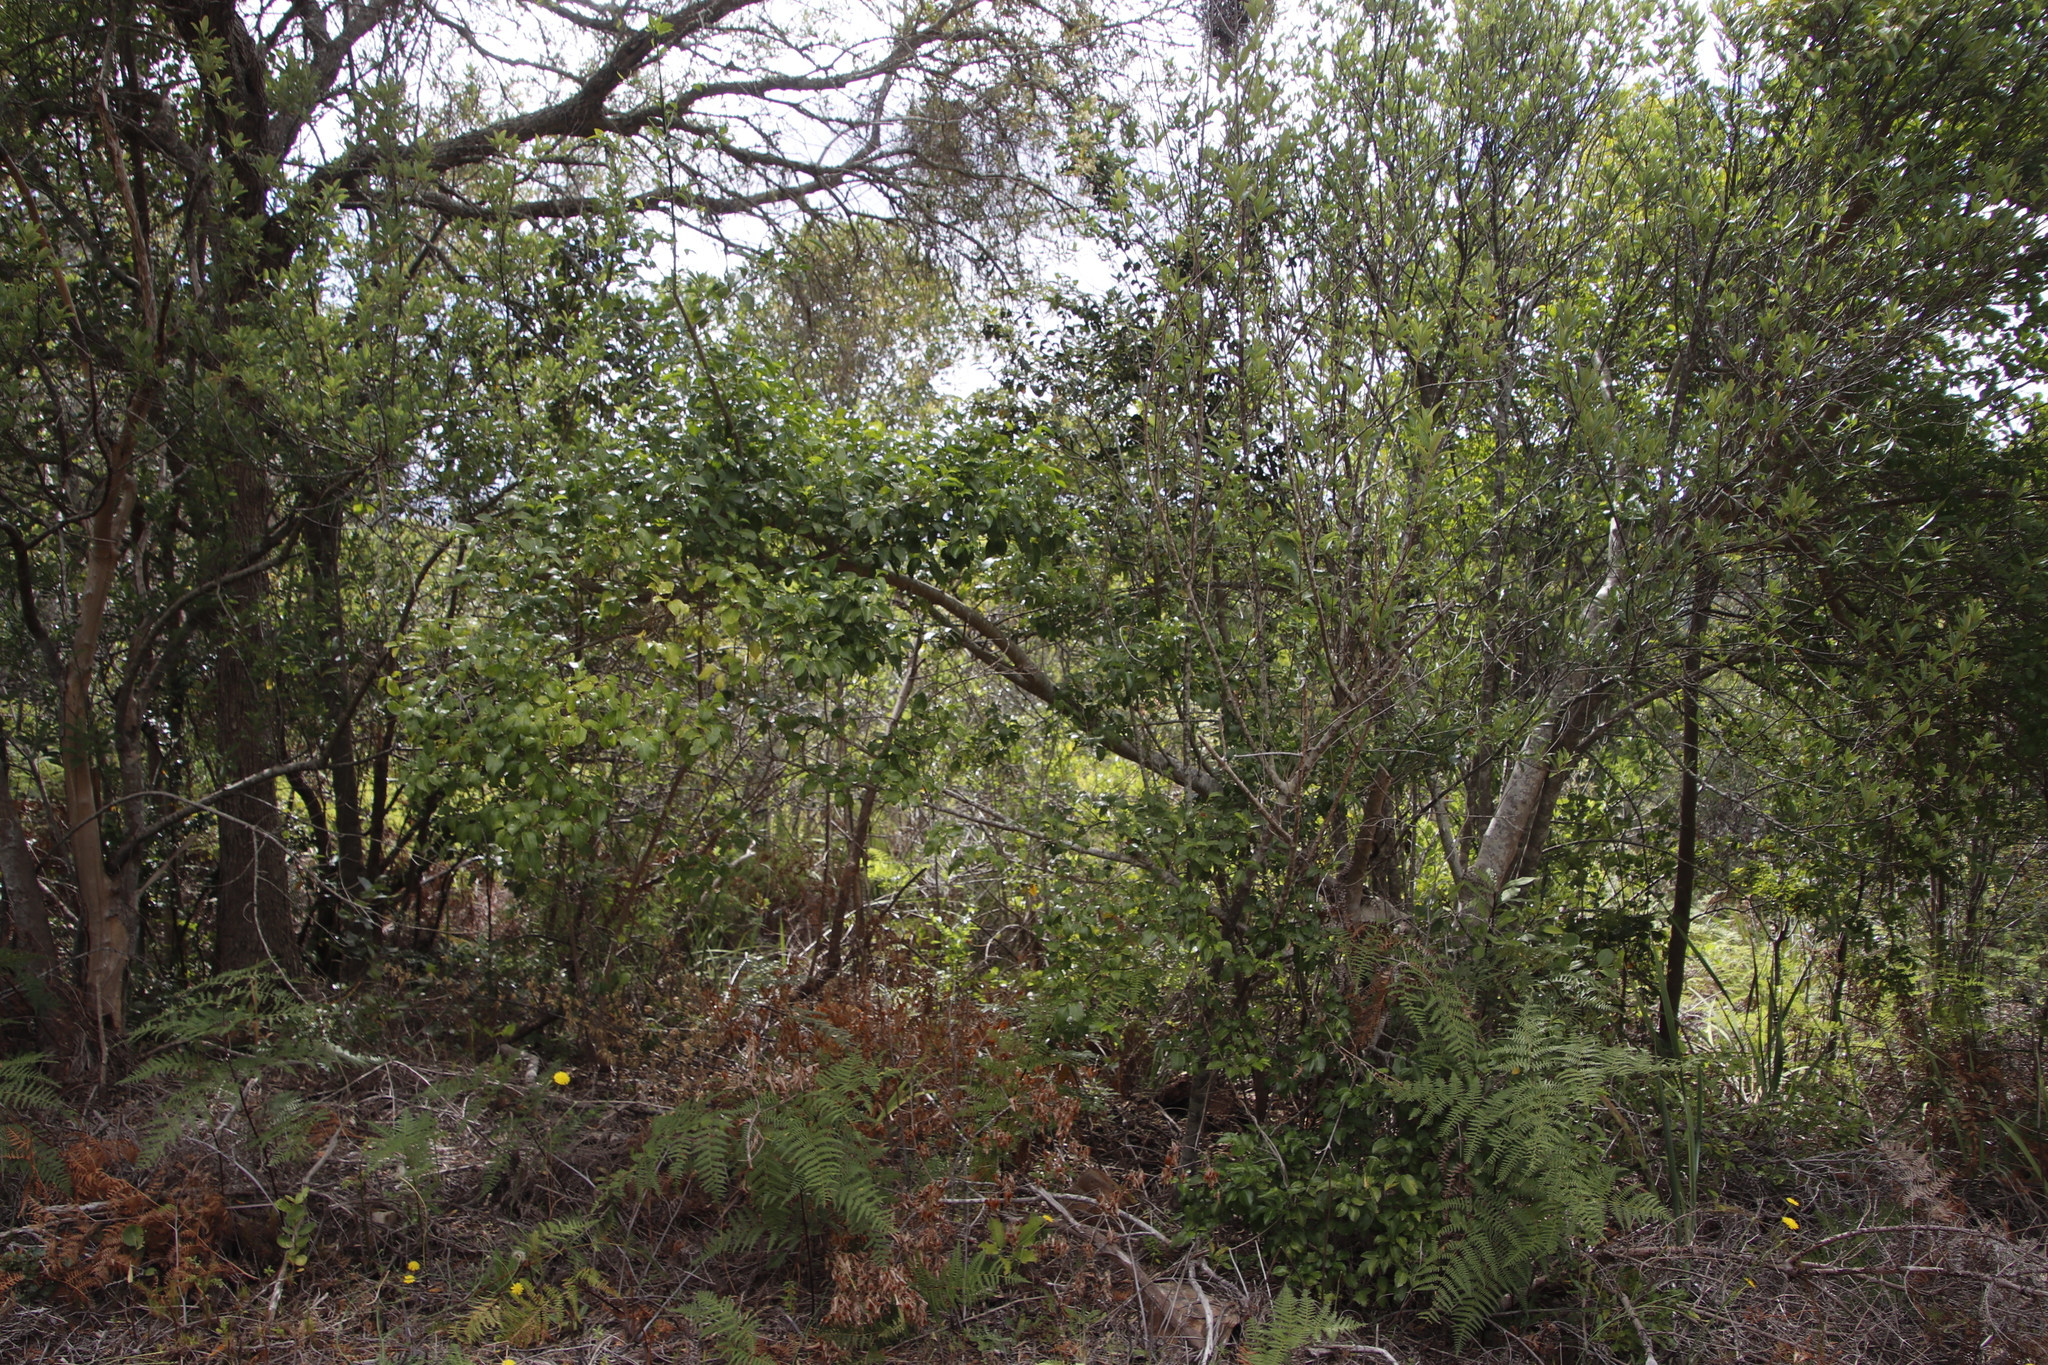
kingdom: Plantae
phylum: Tracheophyta
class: Magnoliopsida
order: Gentianales
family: Rubiaceae
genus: Canthium
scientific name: Canthium inerme
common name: Unarmed turkey-berry
